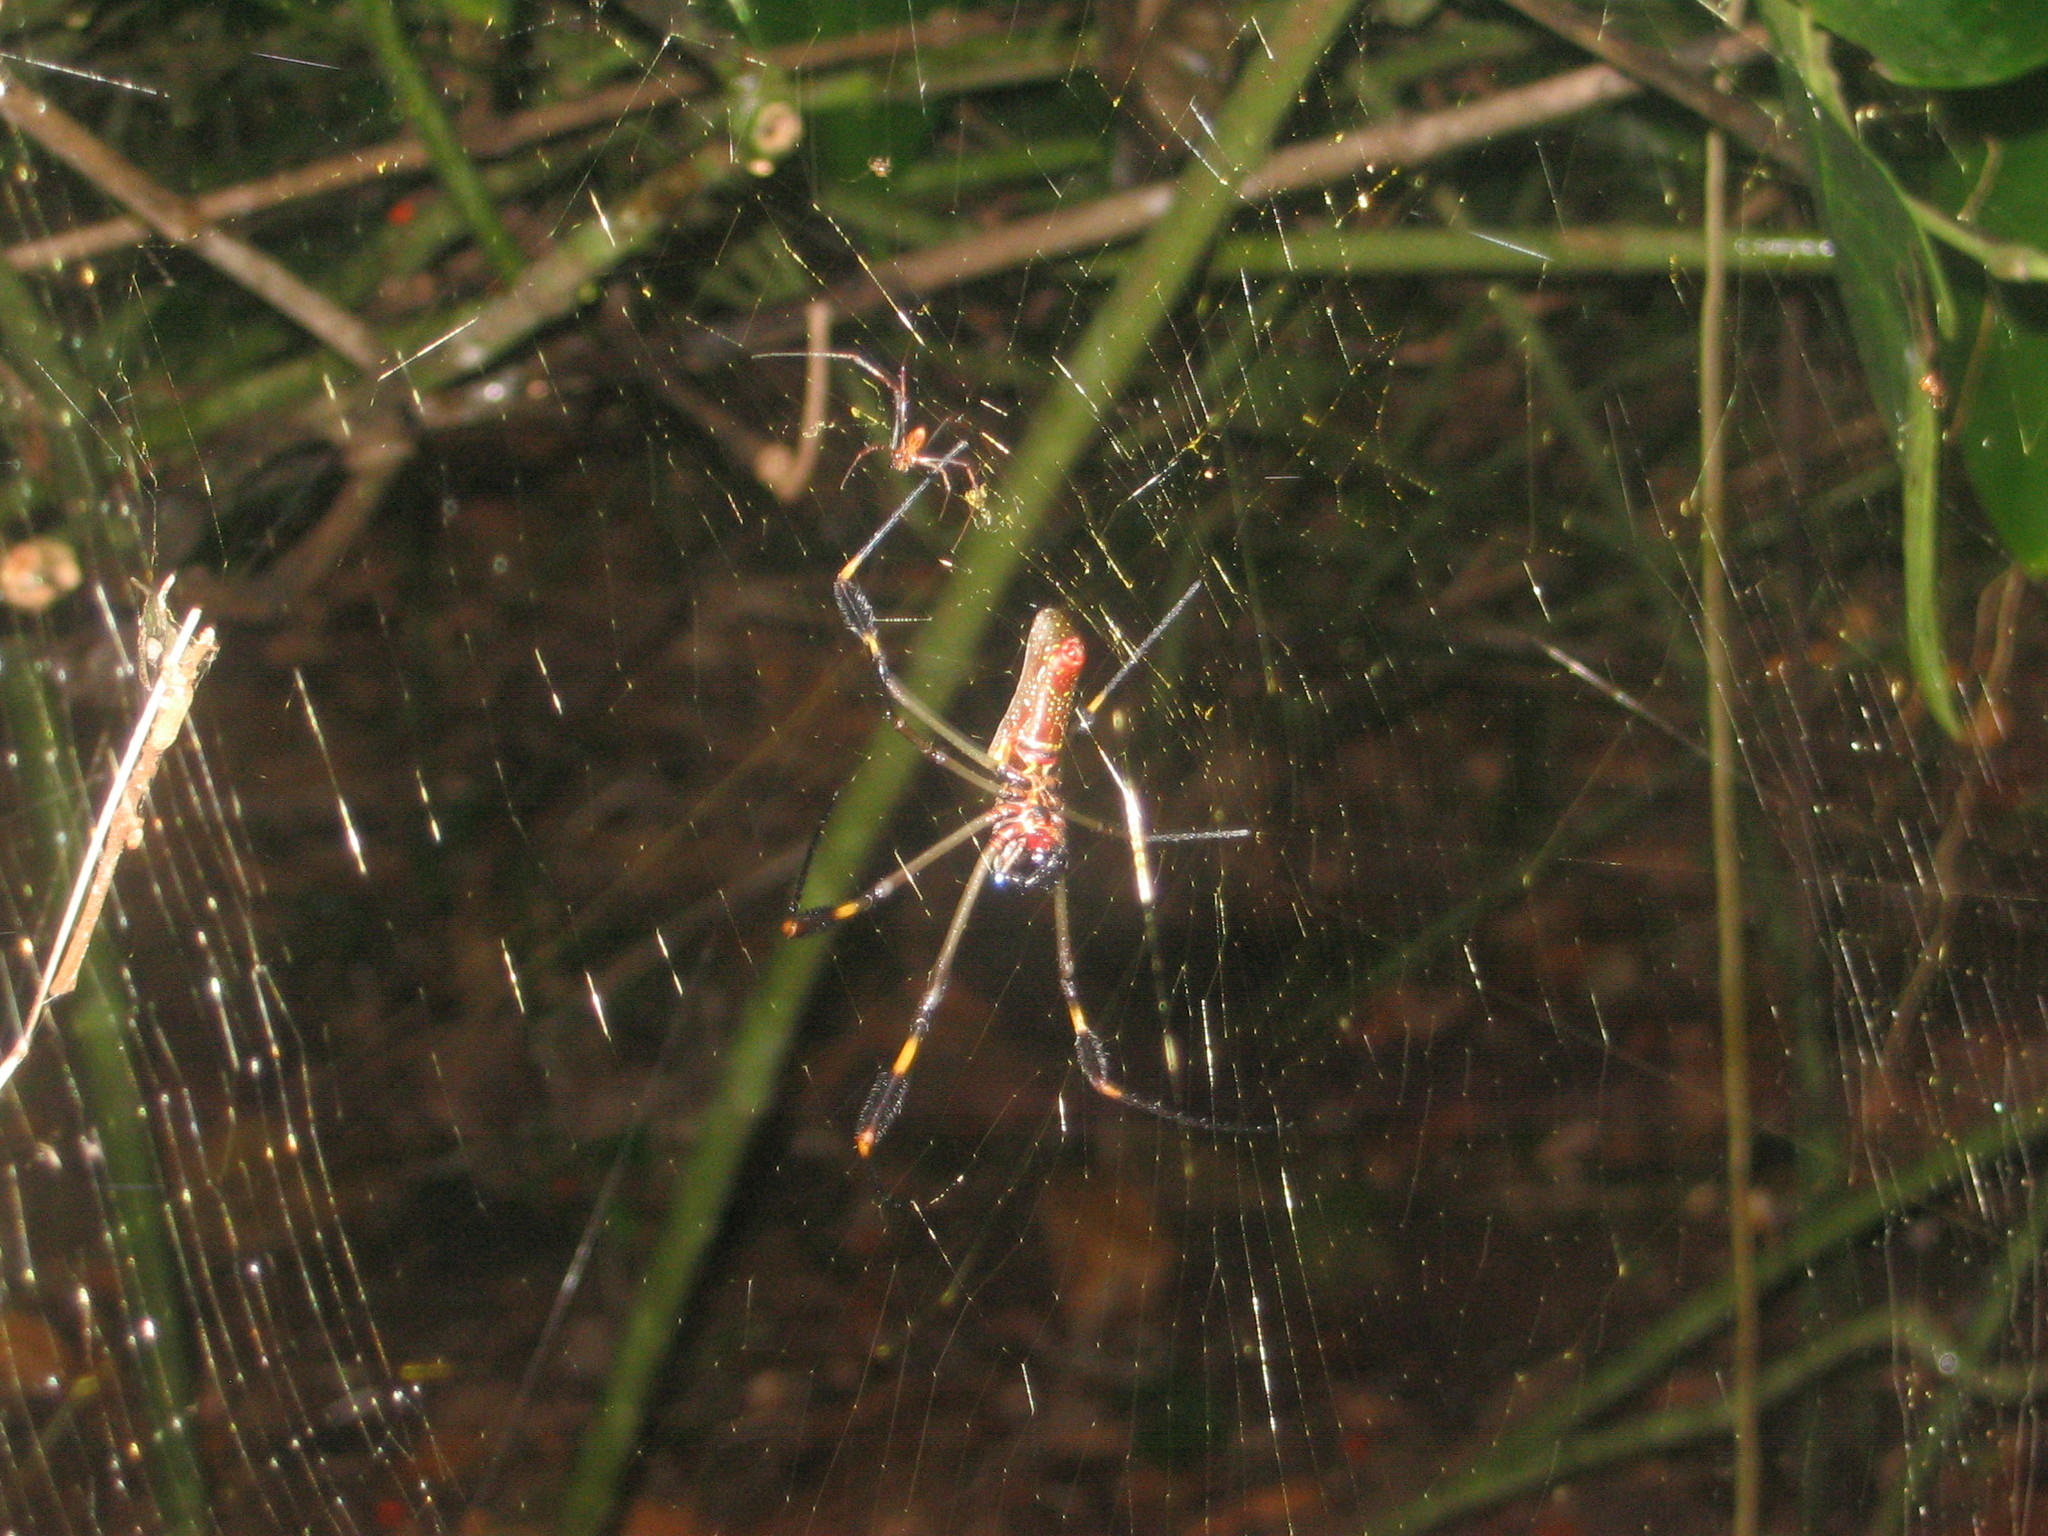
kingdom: Animalia
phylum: Arthropoda
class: Arachnida
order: Araneae
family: Araneidae
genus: Trichonephila
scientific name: Trichonephila clavipes
